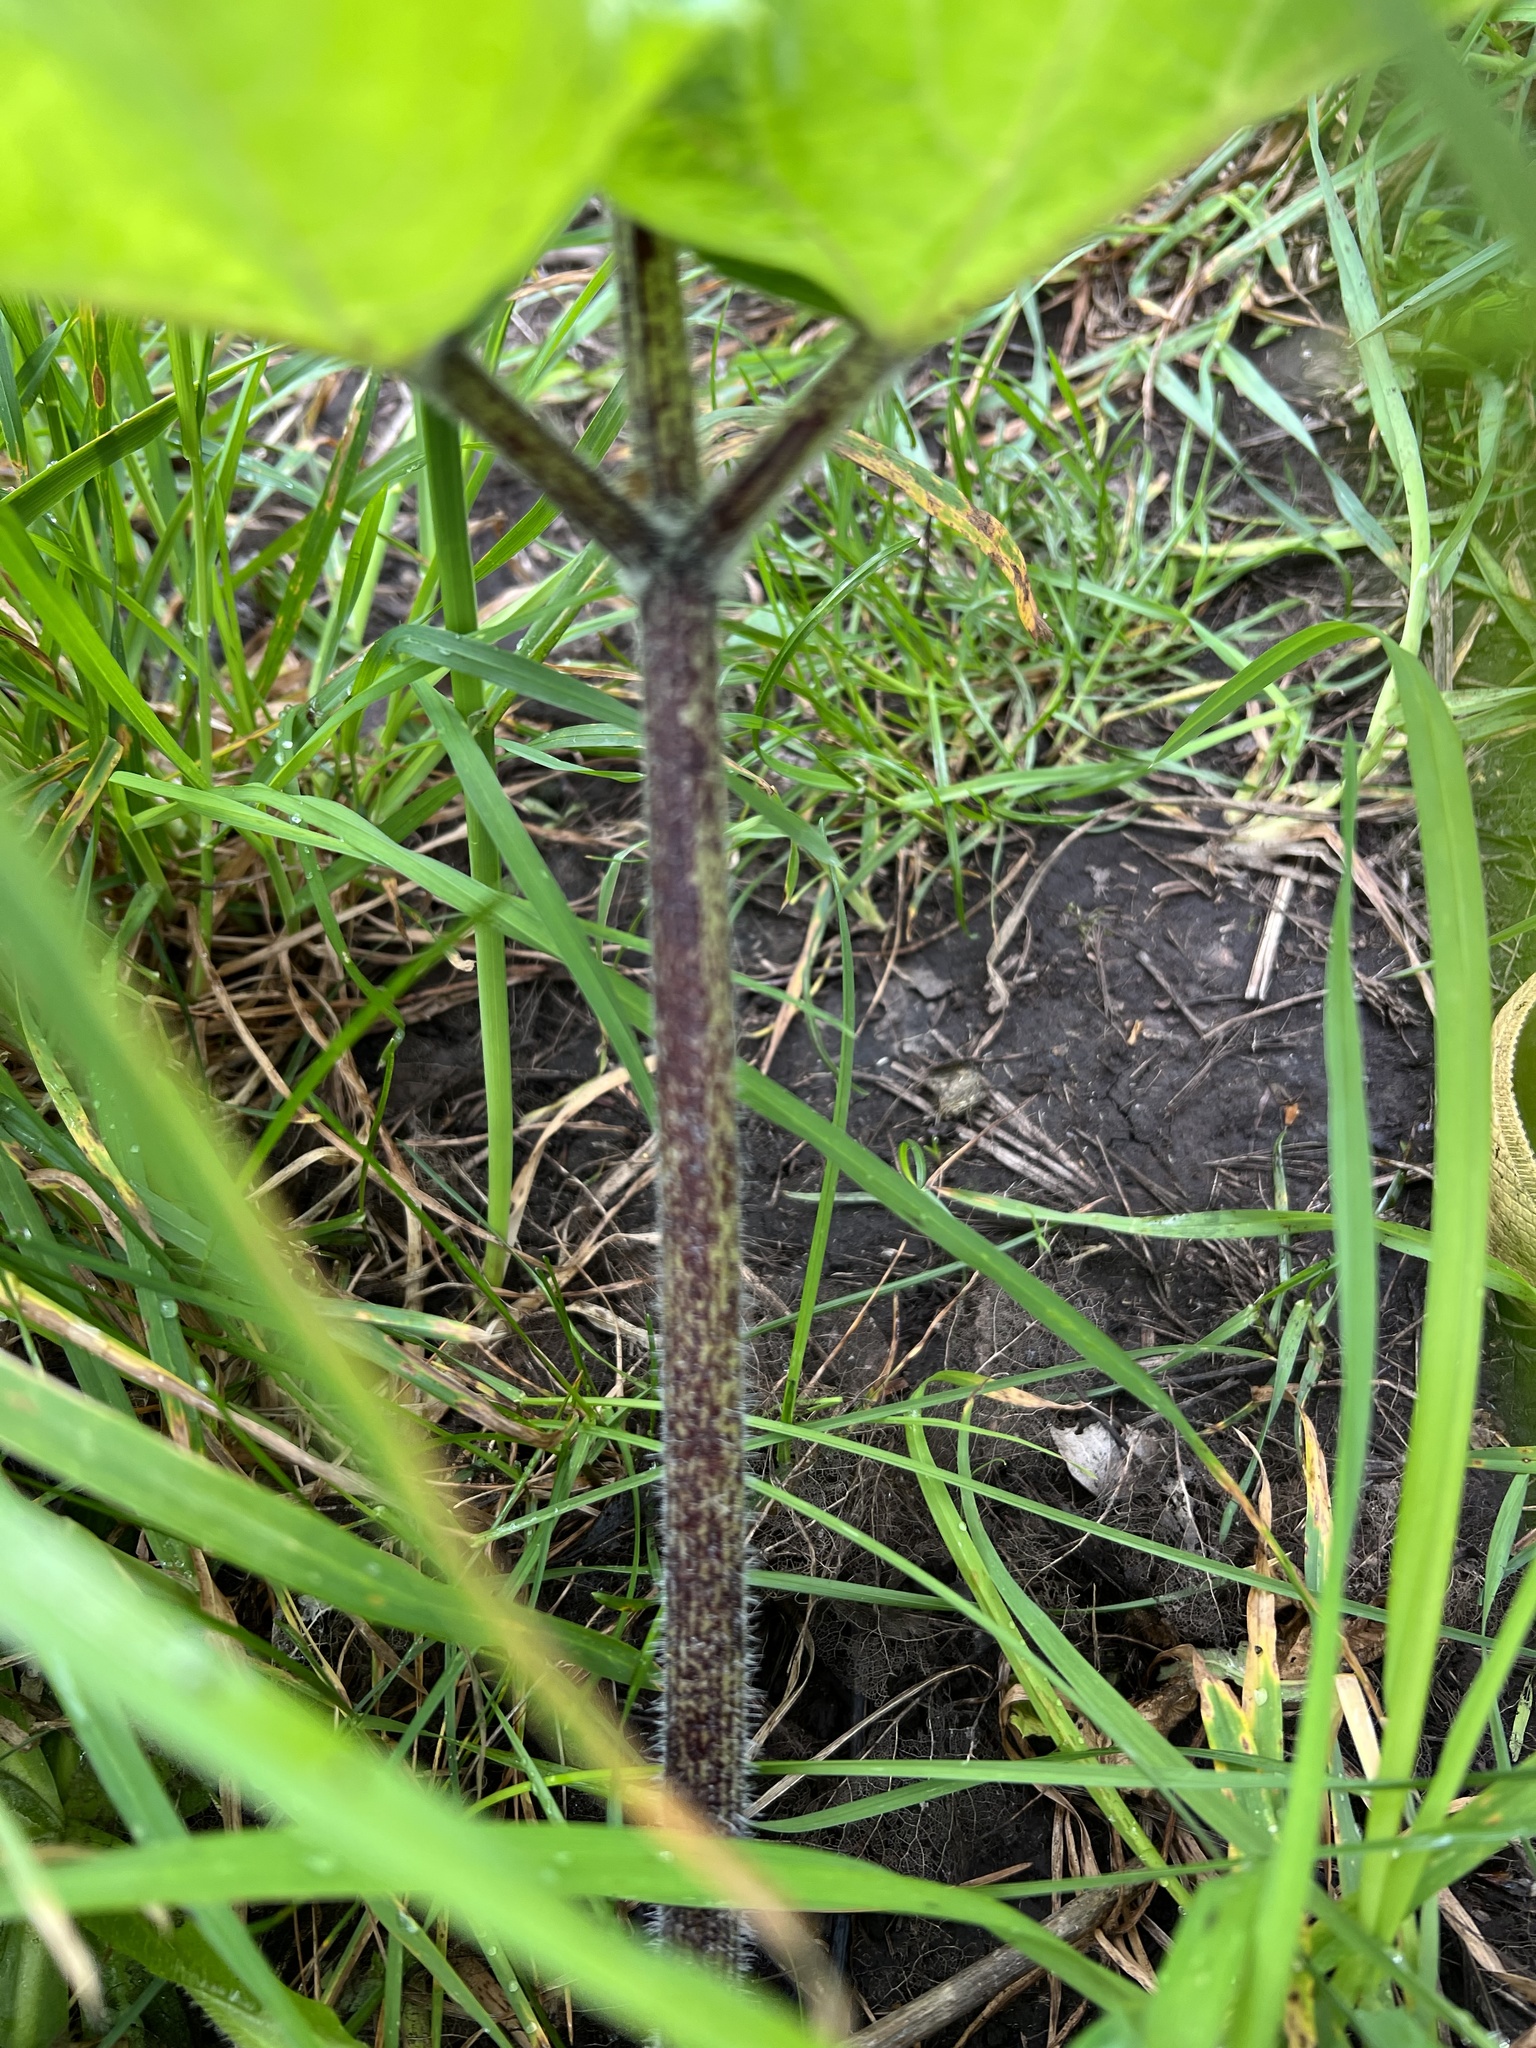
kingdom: Plantae
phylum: Tracheophyta
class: Magnoliopsida
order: Apiales
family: Apiaceae
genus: Heracleum
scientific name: Heracleum maximum
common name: American cow parsnip
